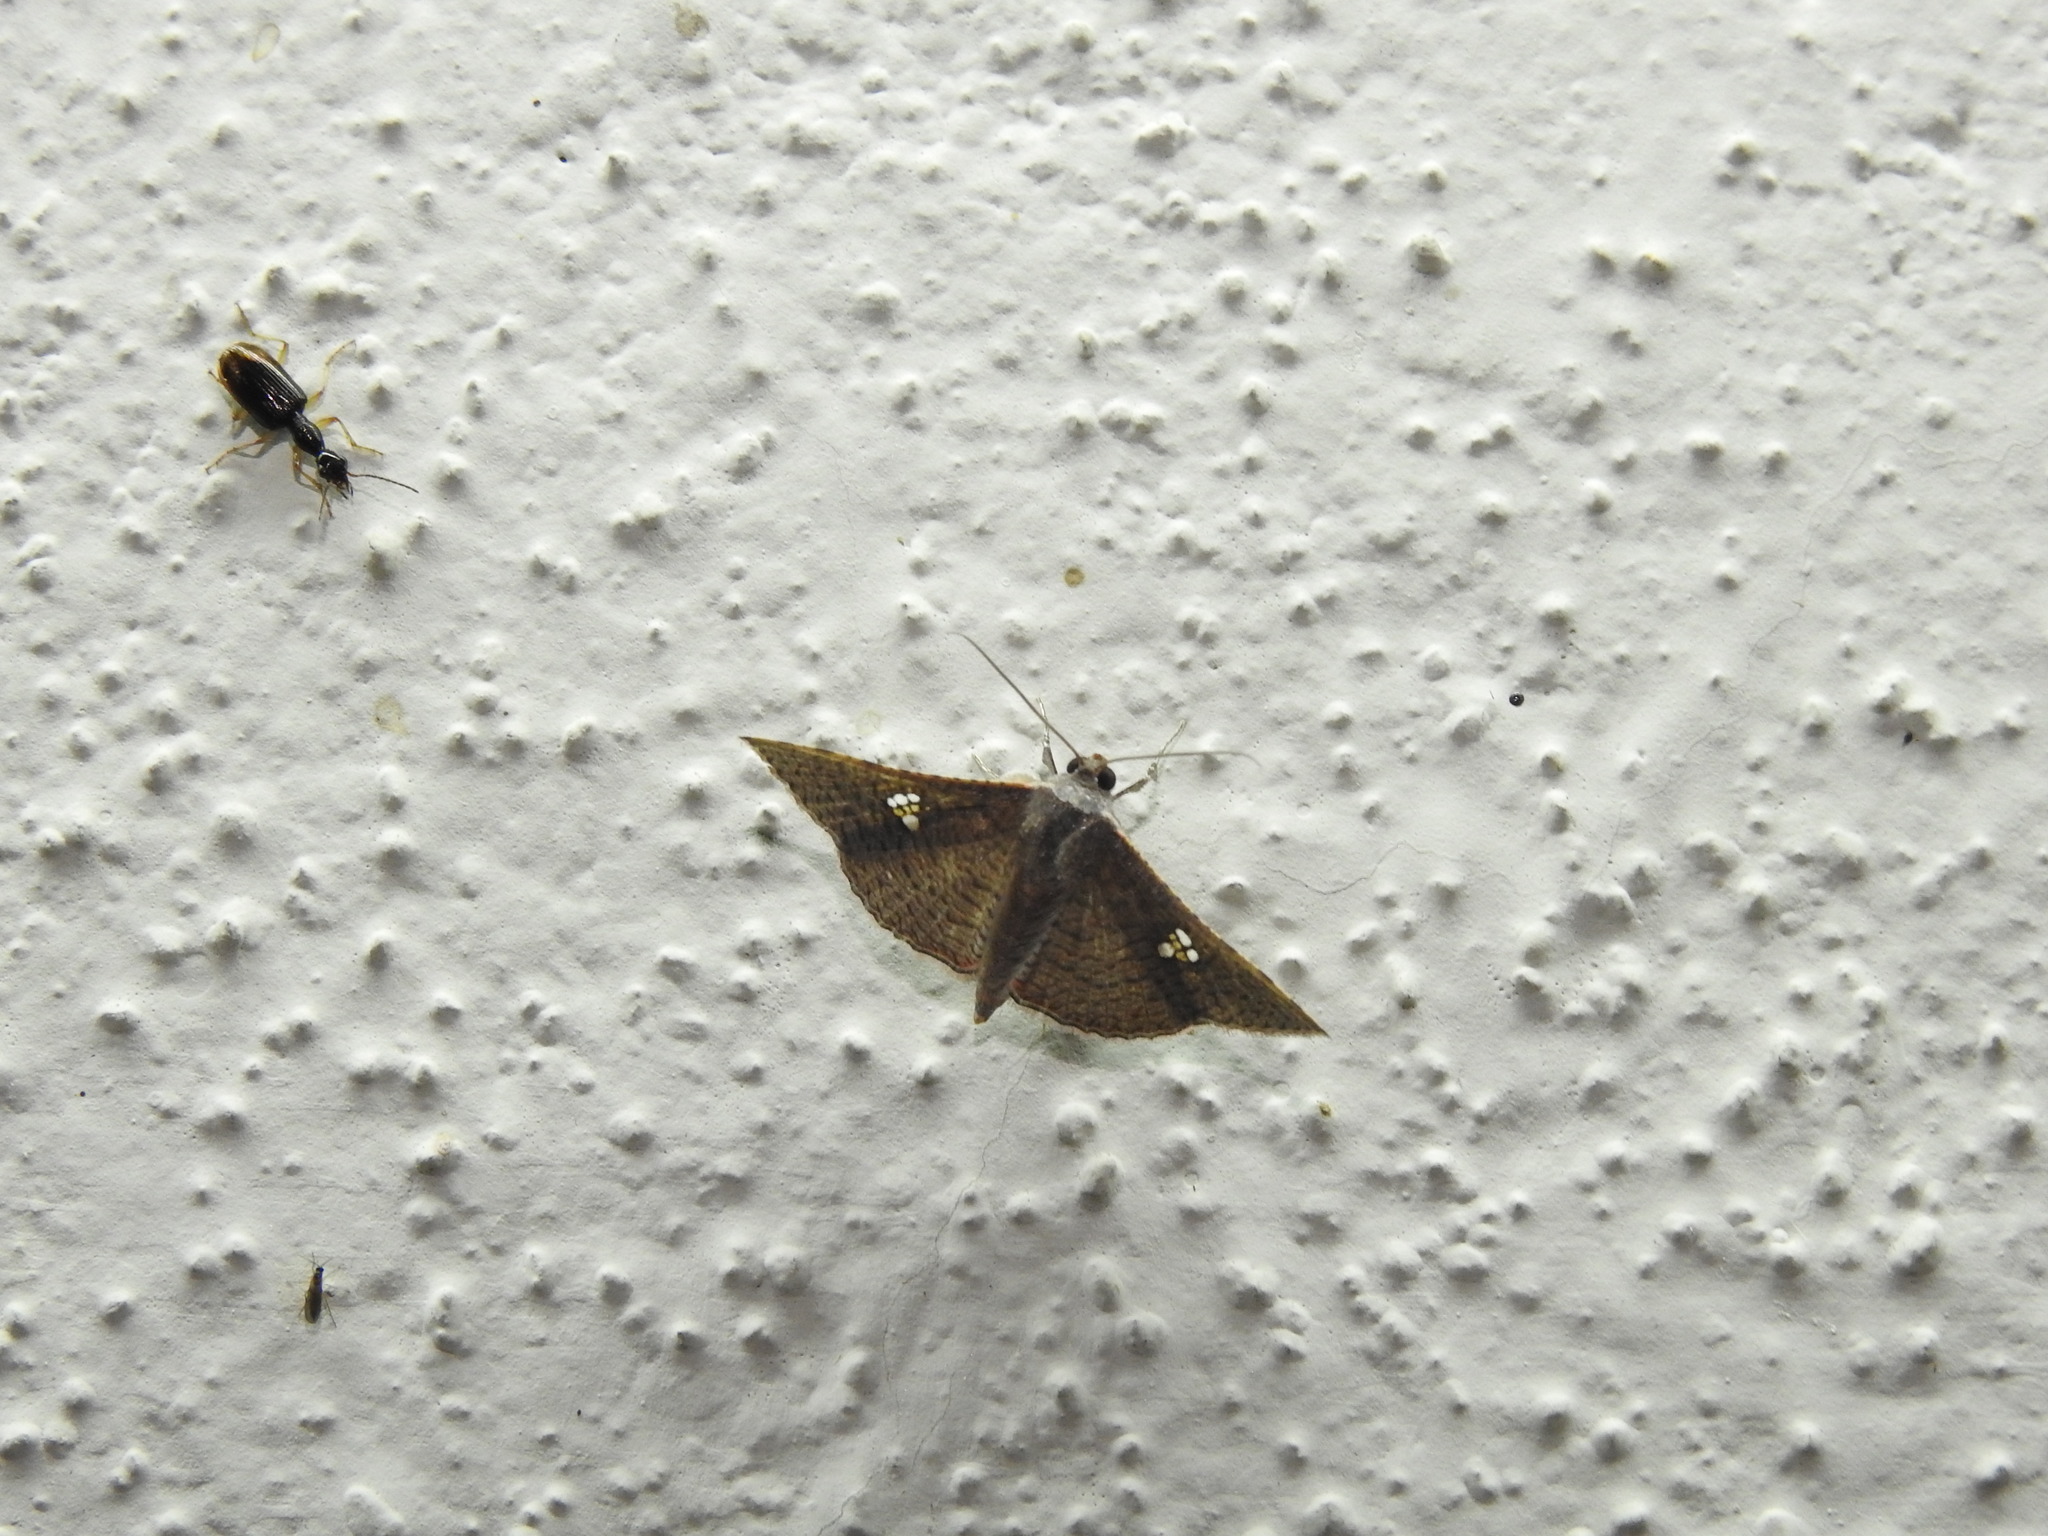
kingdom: Animalia
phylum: Arthropoda
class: Insecta
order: Lepidoptera
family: Thyrididae
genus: Banisia
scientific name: Banisia myrsusalis
